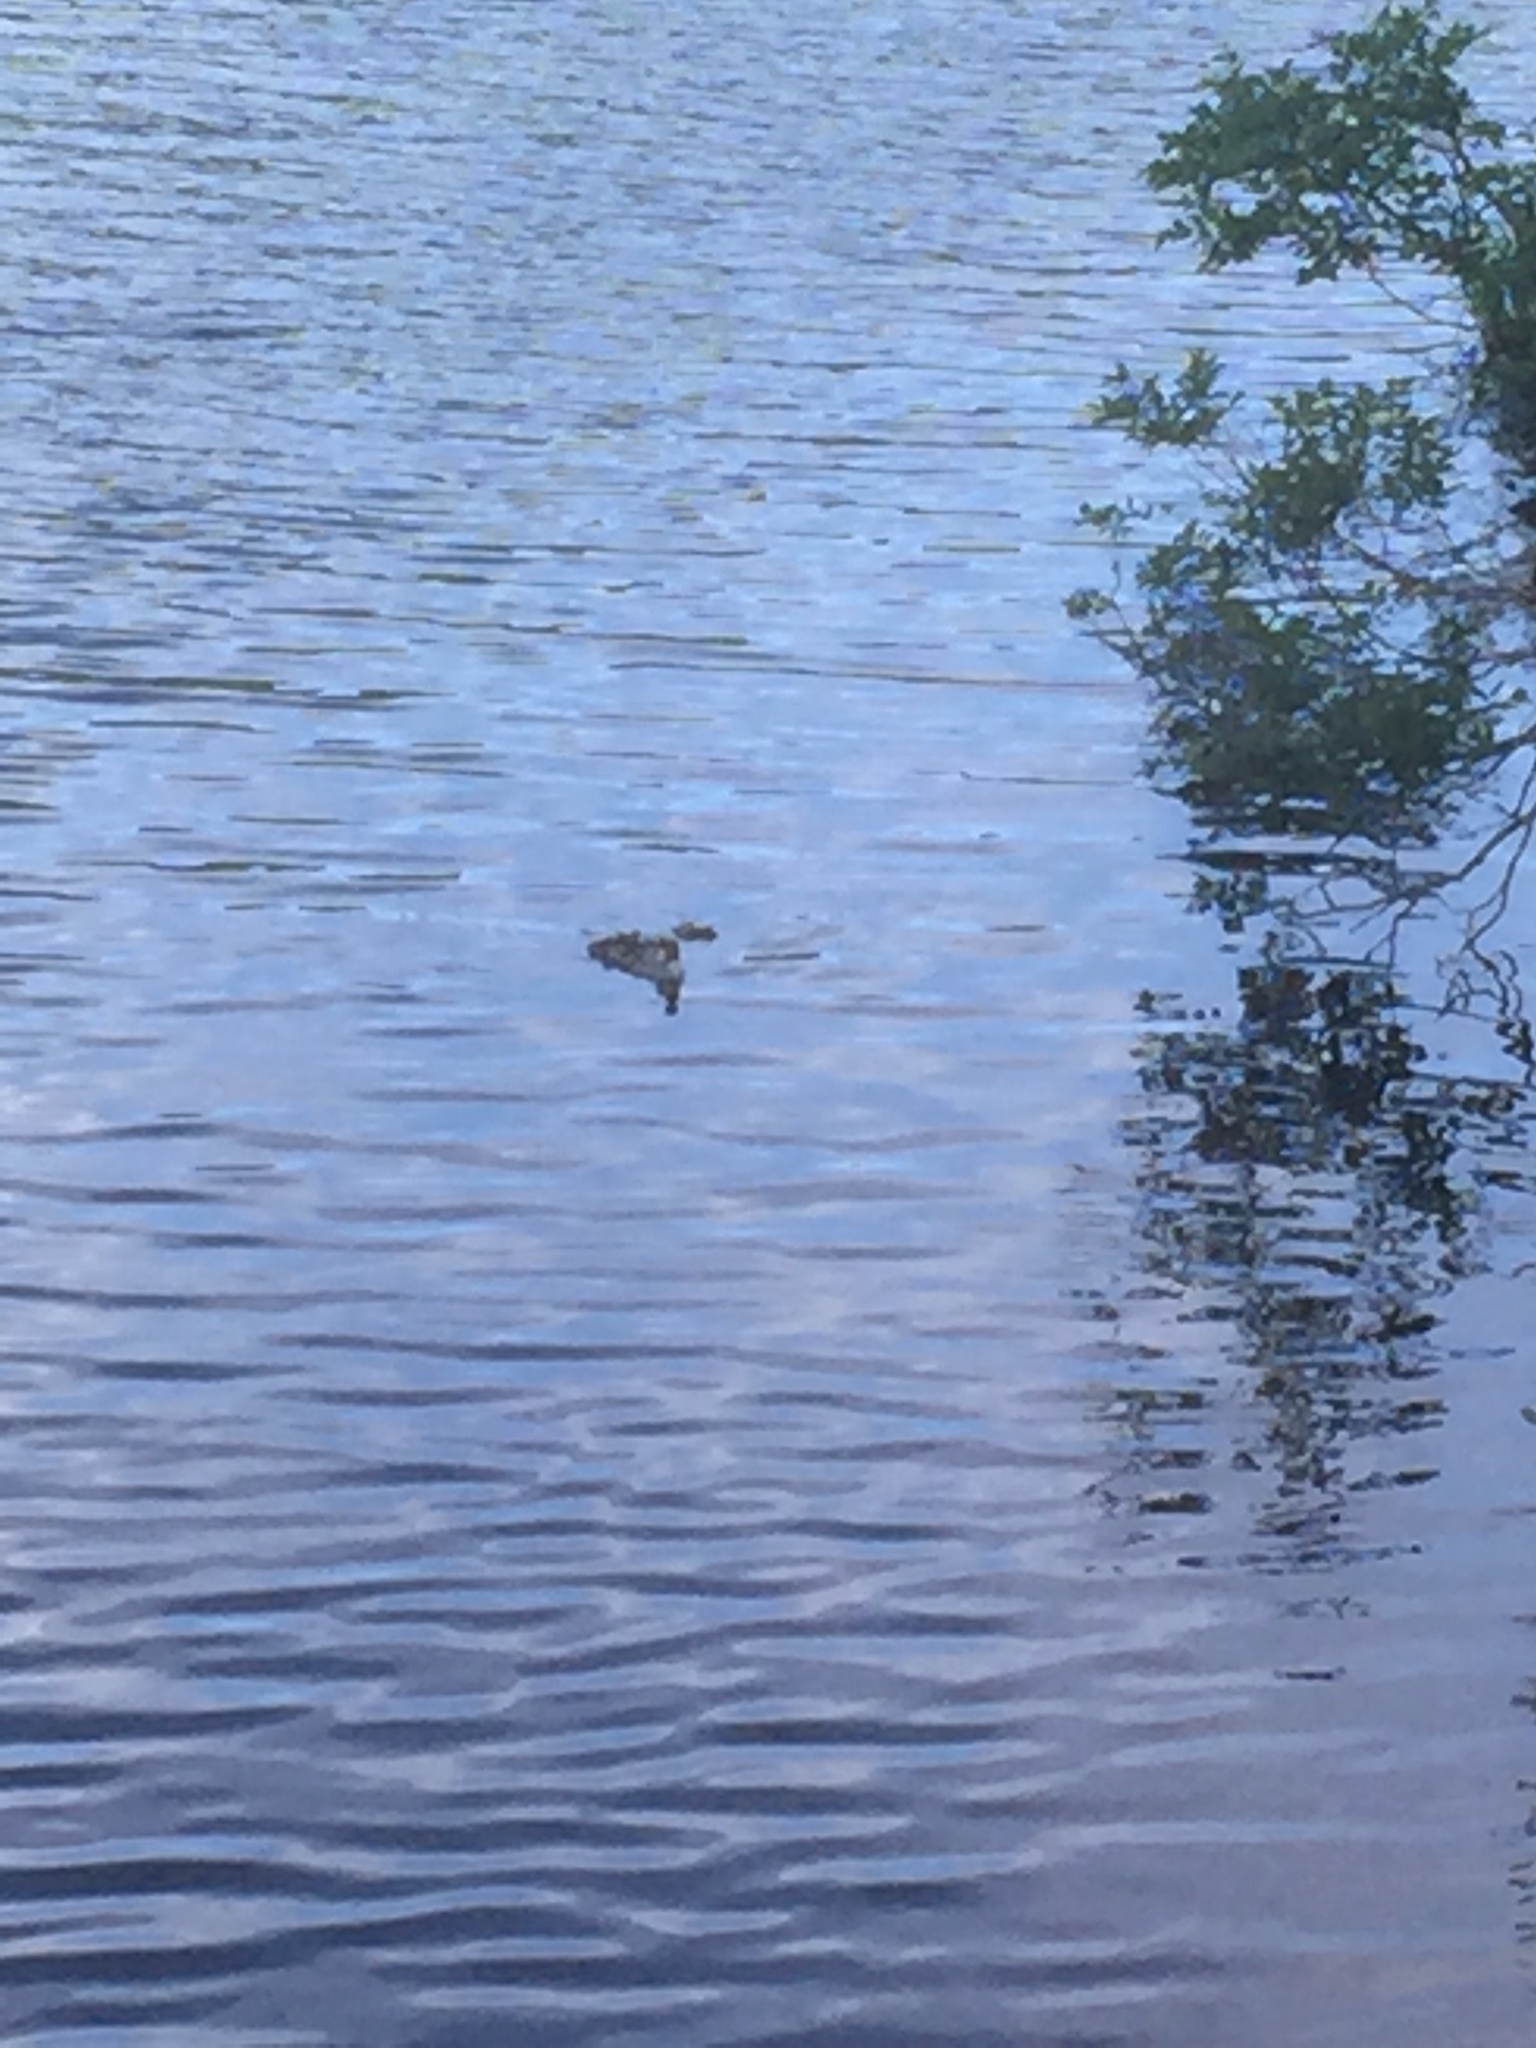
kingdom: Animalia
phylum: Chordata
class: Aves
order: Anseriformes
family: Anatidae
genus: Mergus
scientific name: Mergus merganser
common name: Common merganser
